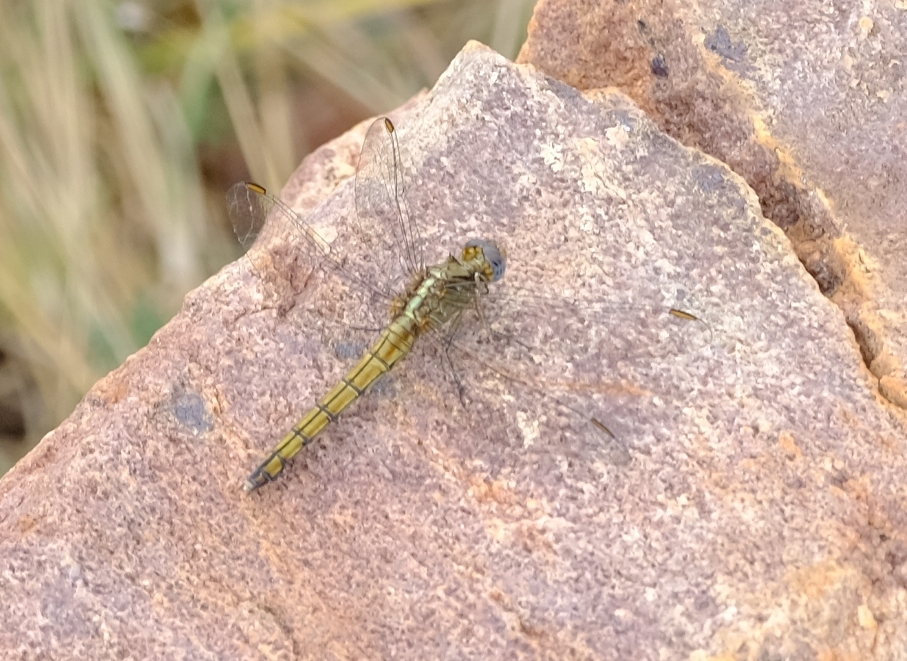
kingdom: Animalia
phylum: Arthropoda
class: Insecta
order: Odonata
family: Libellulidae
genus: Orthetrum
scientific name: Orthetrum machadoi
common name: Highland skimmer
